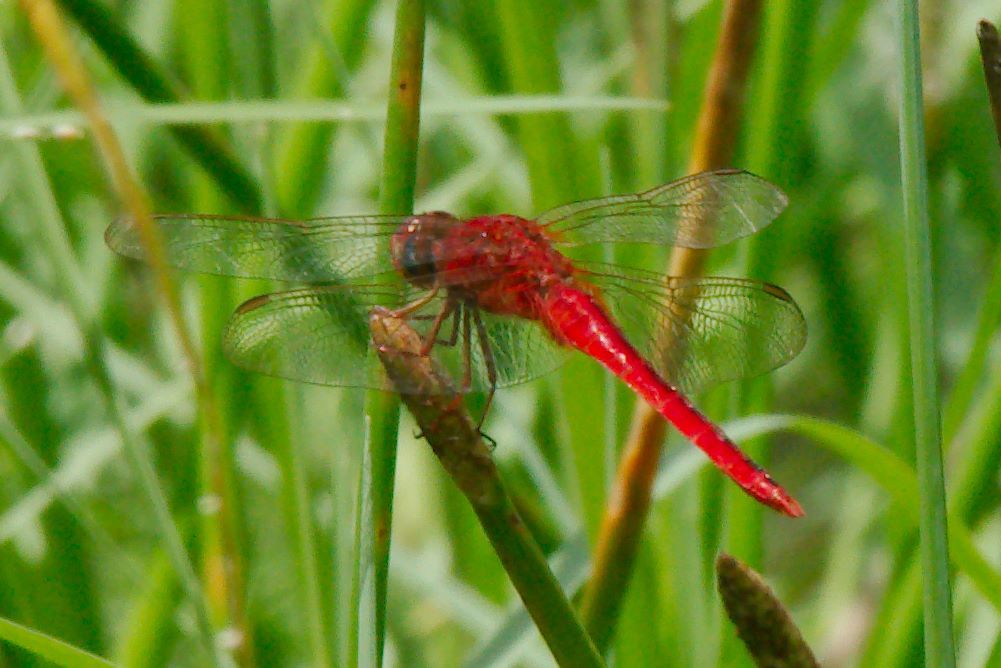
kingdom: Animalia
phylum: Arthropoda
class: Insecta
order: Odonata
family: Libellulidae
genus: Crocothemis
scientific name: Crocothemis servilia
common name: Scarlet skimmer
